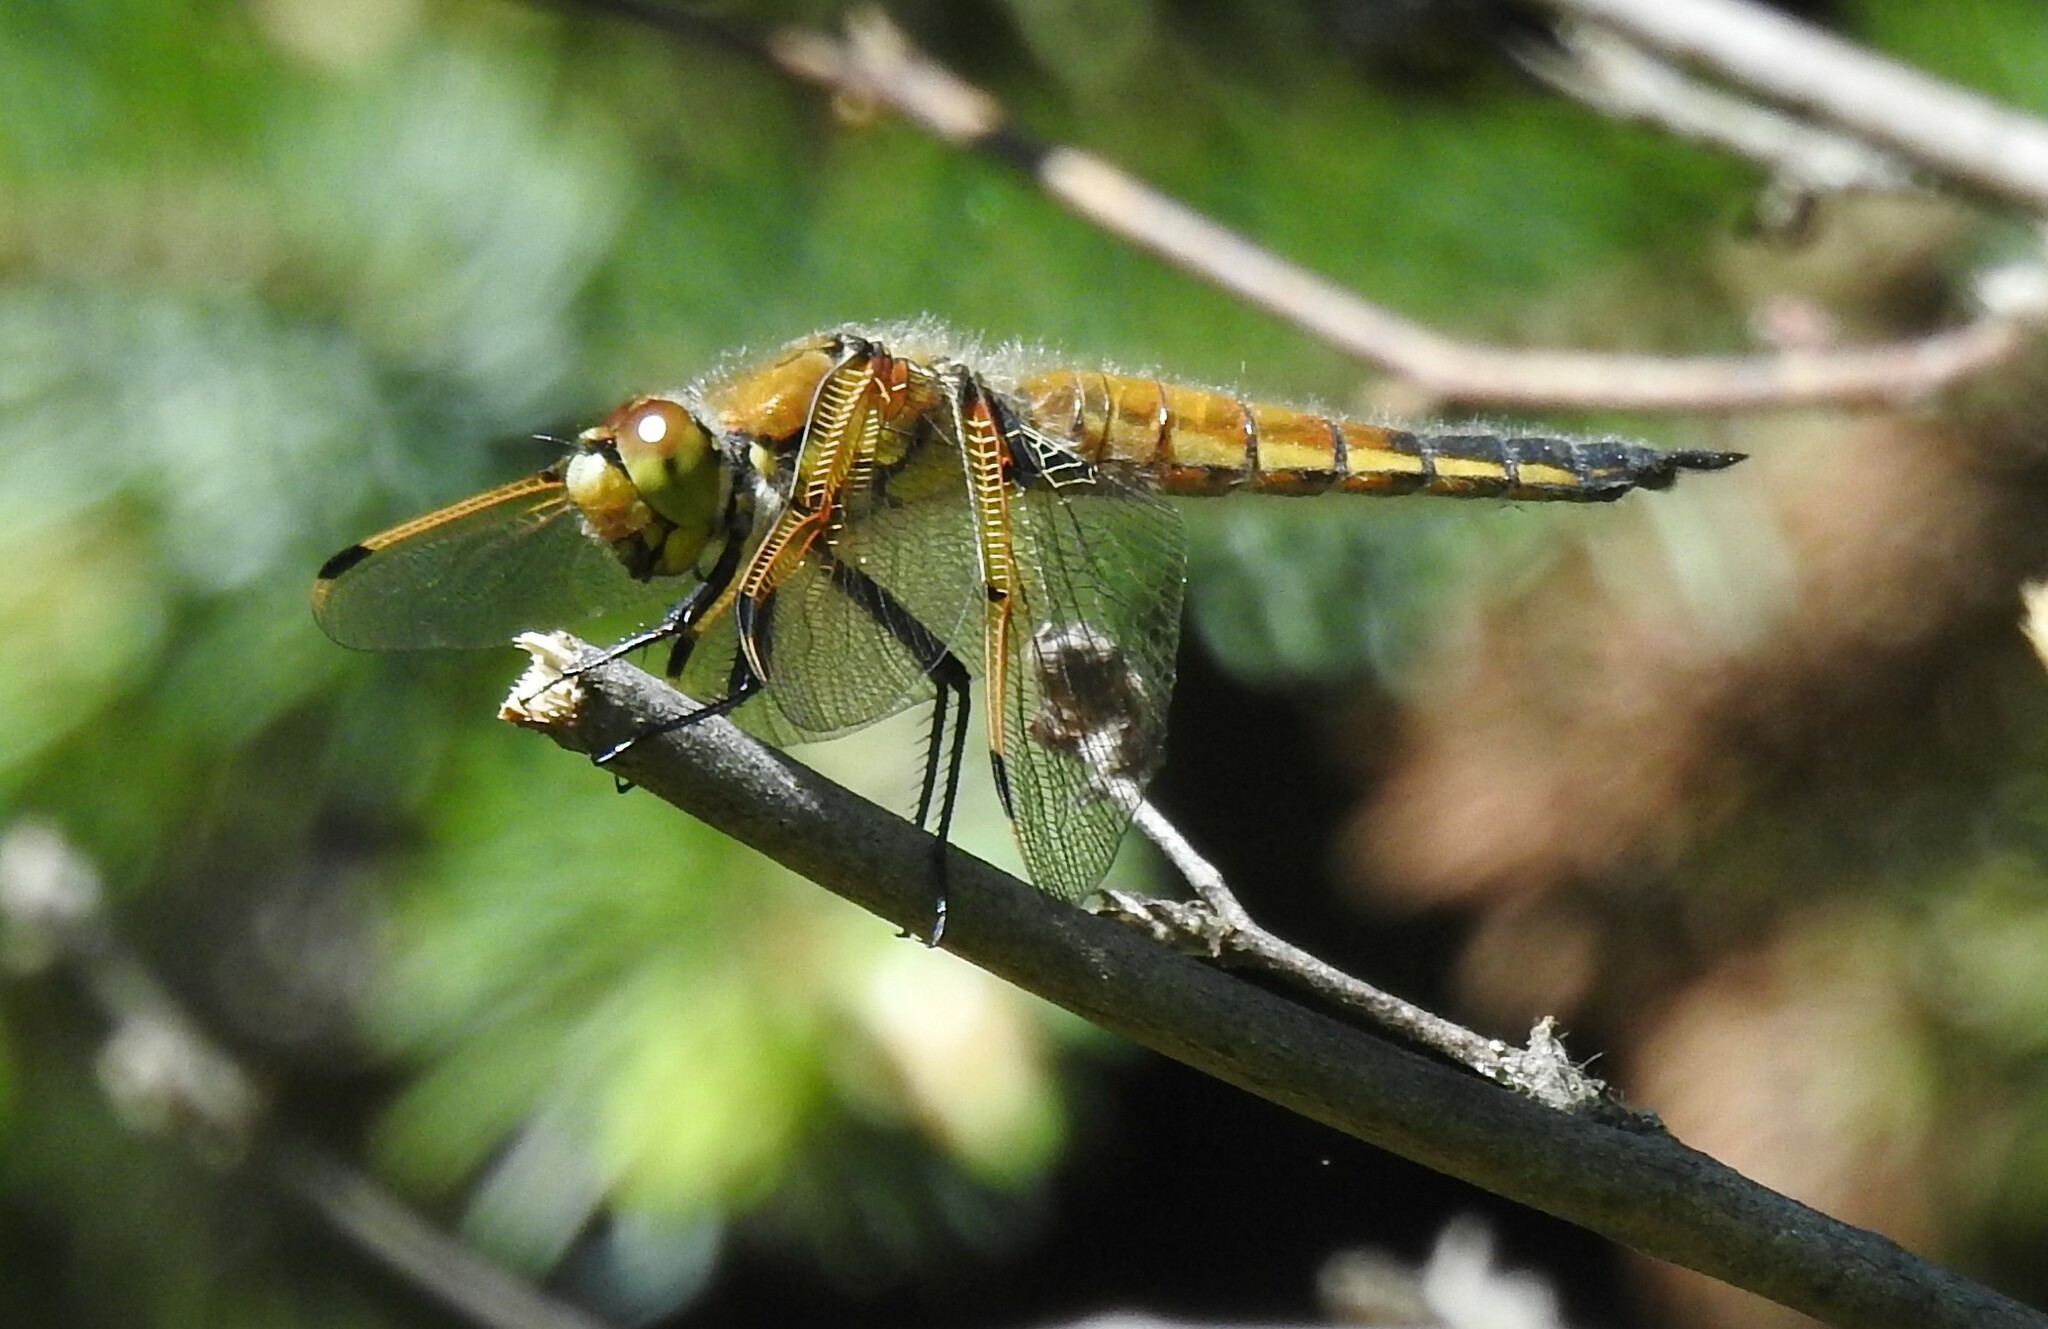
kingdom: Animalia
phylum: Arthropoda
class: Insecta
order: Odonata
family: Libellulidae
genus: Libellula
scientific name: Libellula quadrimaculata
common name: Four-spotted chaser
